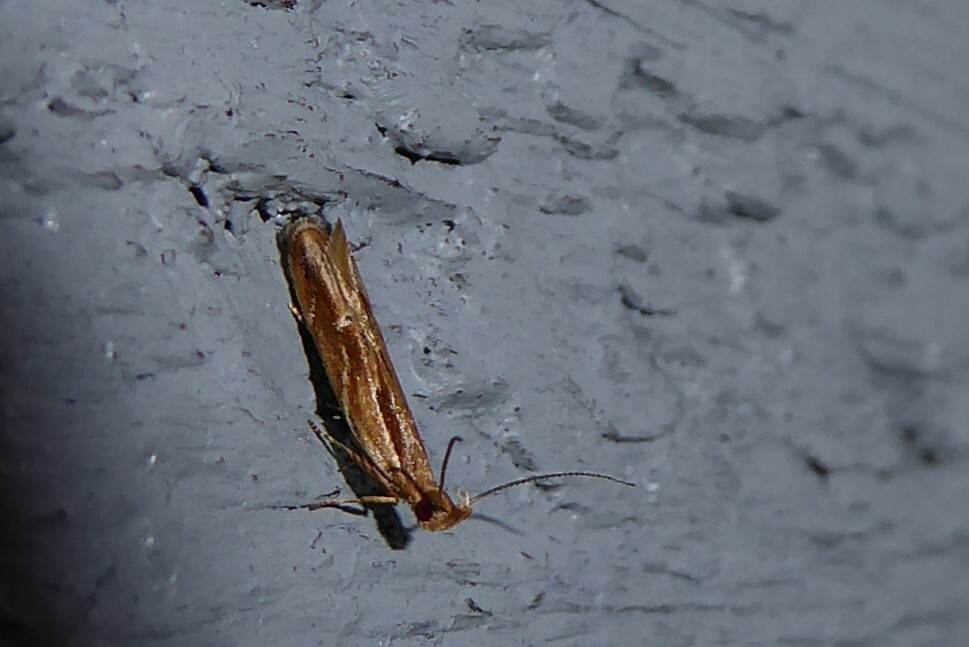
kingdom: Animalia
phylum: Arthropoda
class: Insecta
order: Lepidoptera
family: Depressariidae
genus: Eutorna
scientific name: Eutorna symmorpha
